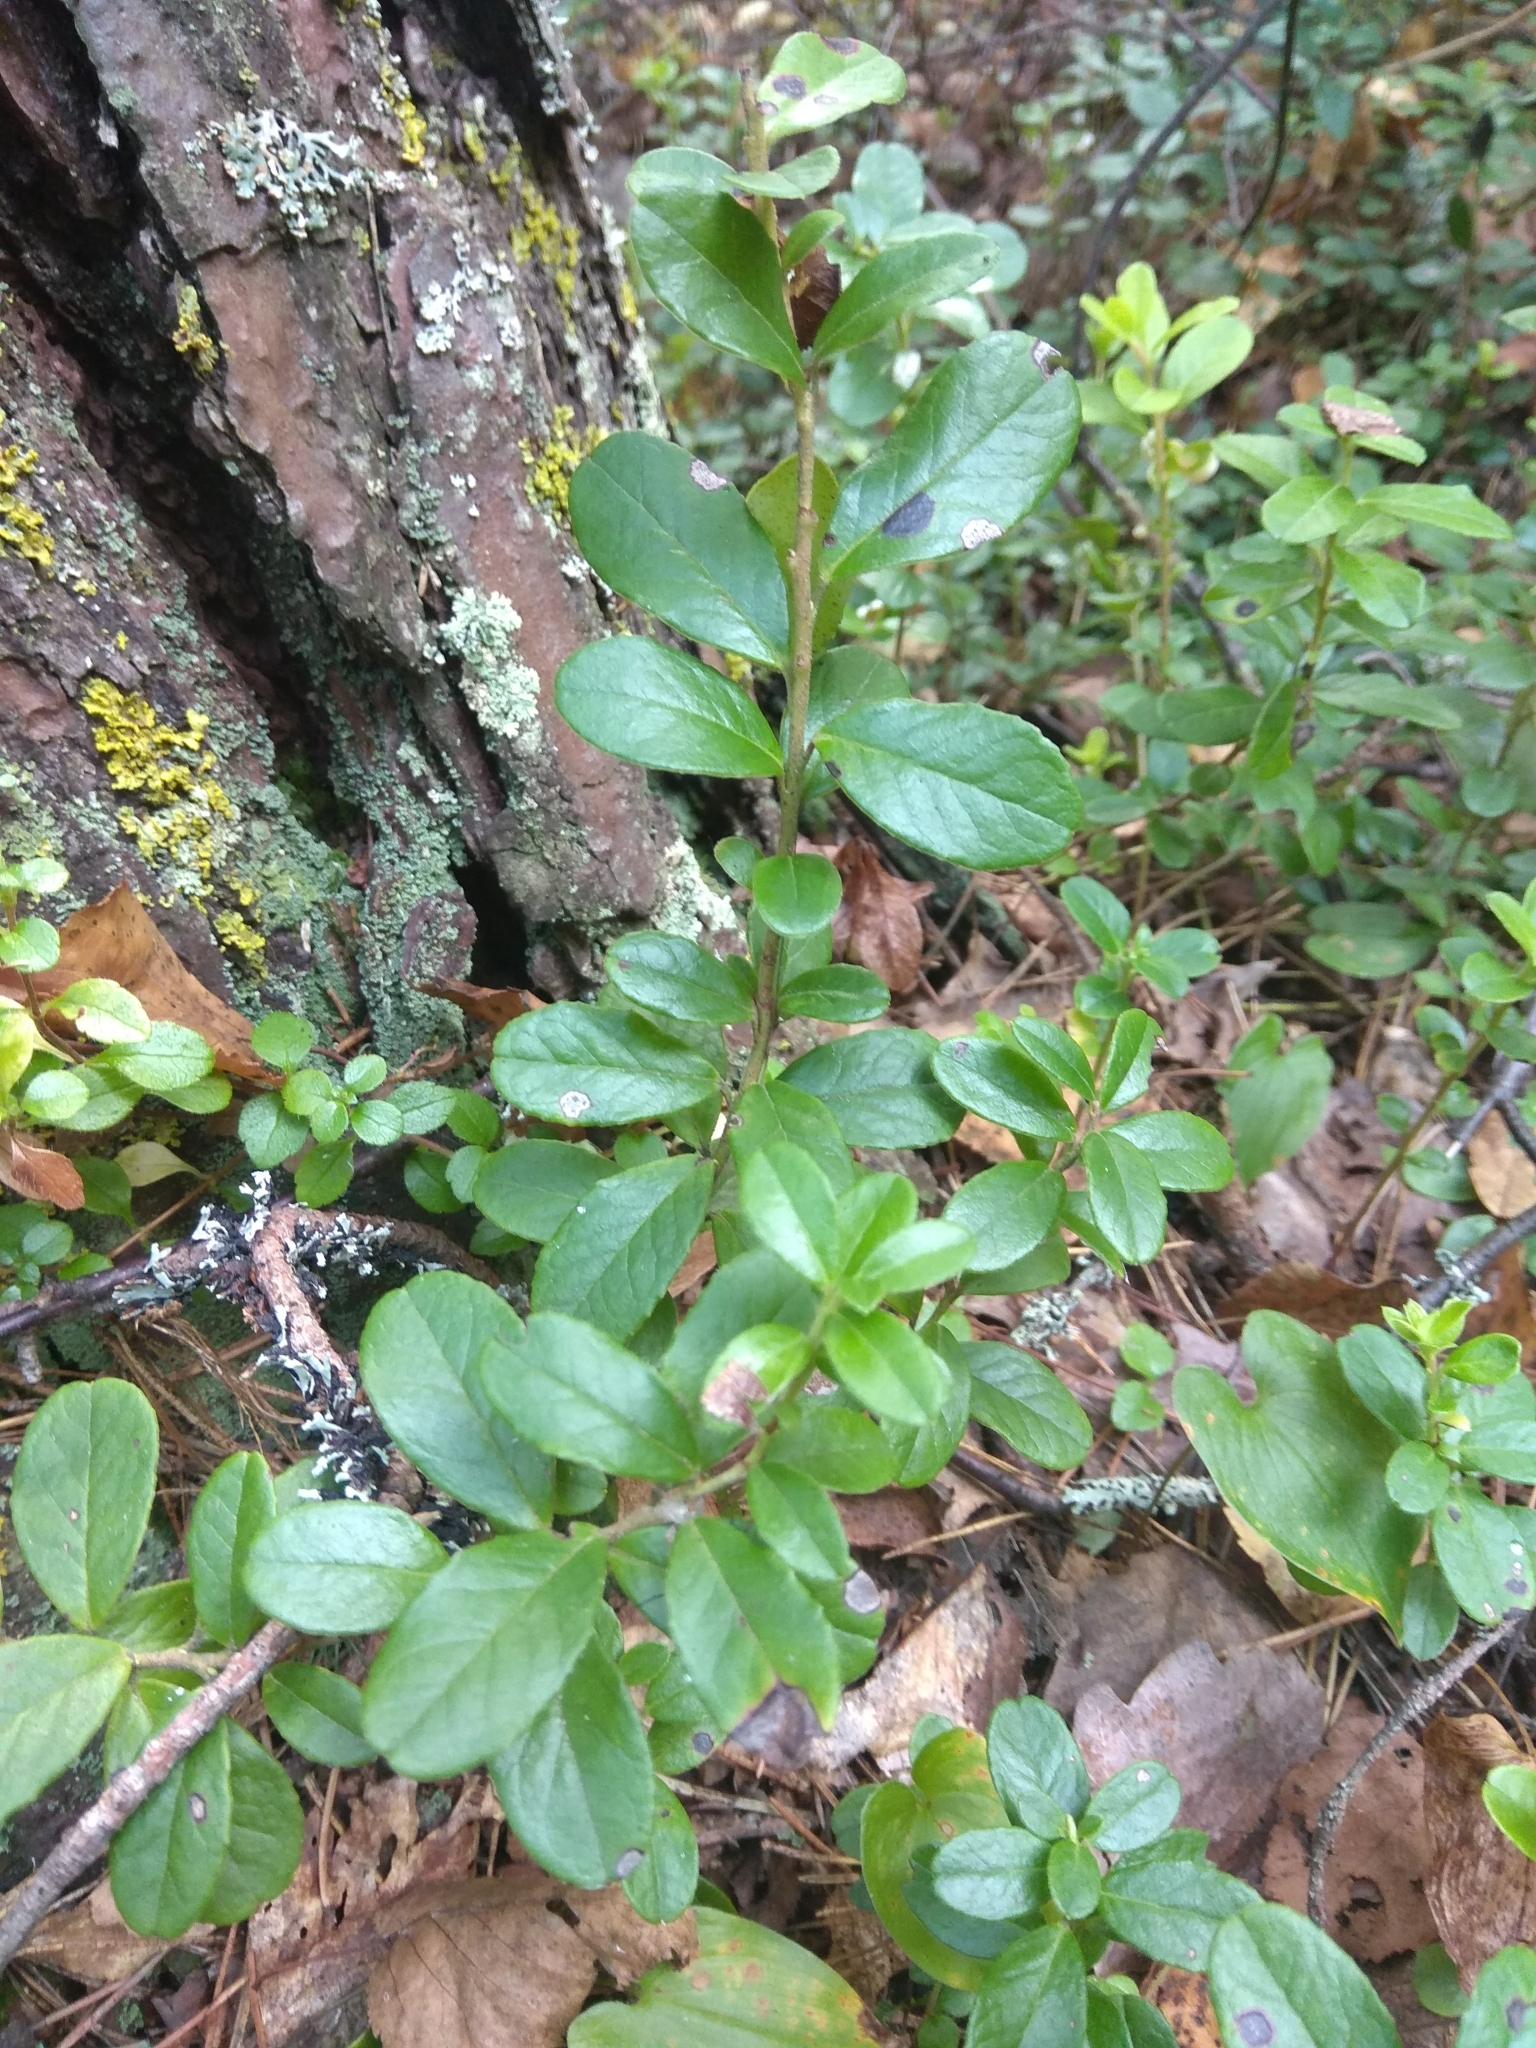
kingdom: Plantae
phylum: Tracheophyta
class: Magnoliopsida
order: Ericales
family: Ericaceae
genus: Vaccinium
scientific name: Vaccinium vitis-idaea
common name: Cowberry
